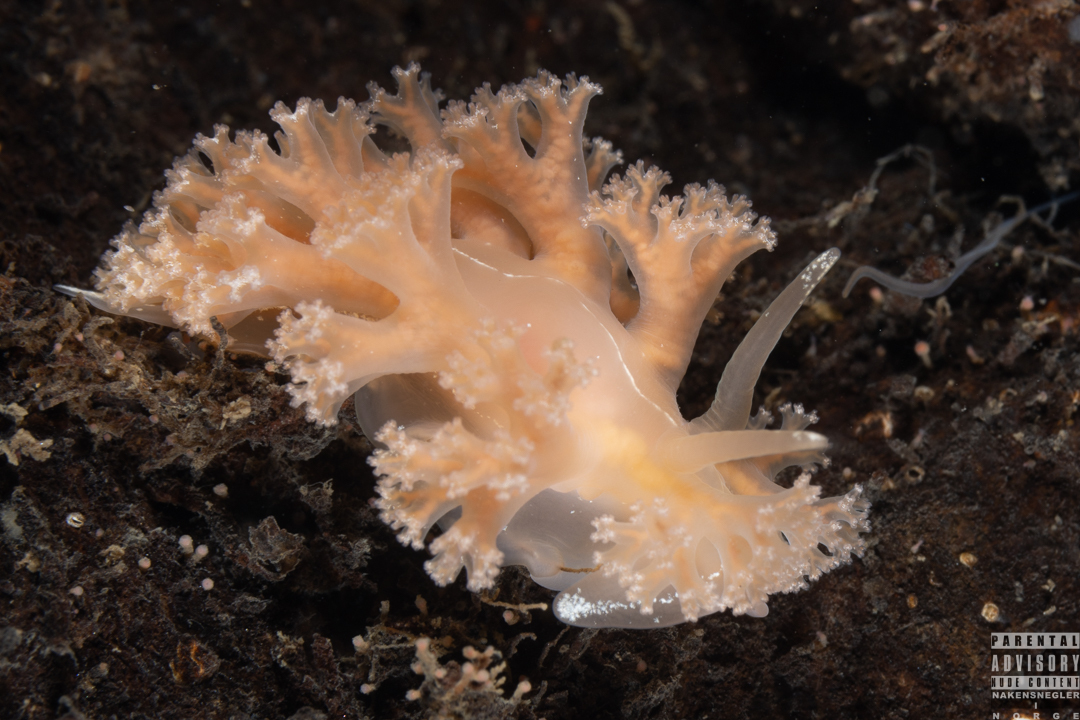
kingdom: Animalia
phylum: Mollusca
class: Gastropoda
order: Nudibranchia
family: Heroidae
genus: Hero
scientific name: Hero formosa
